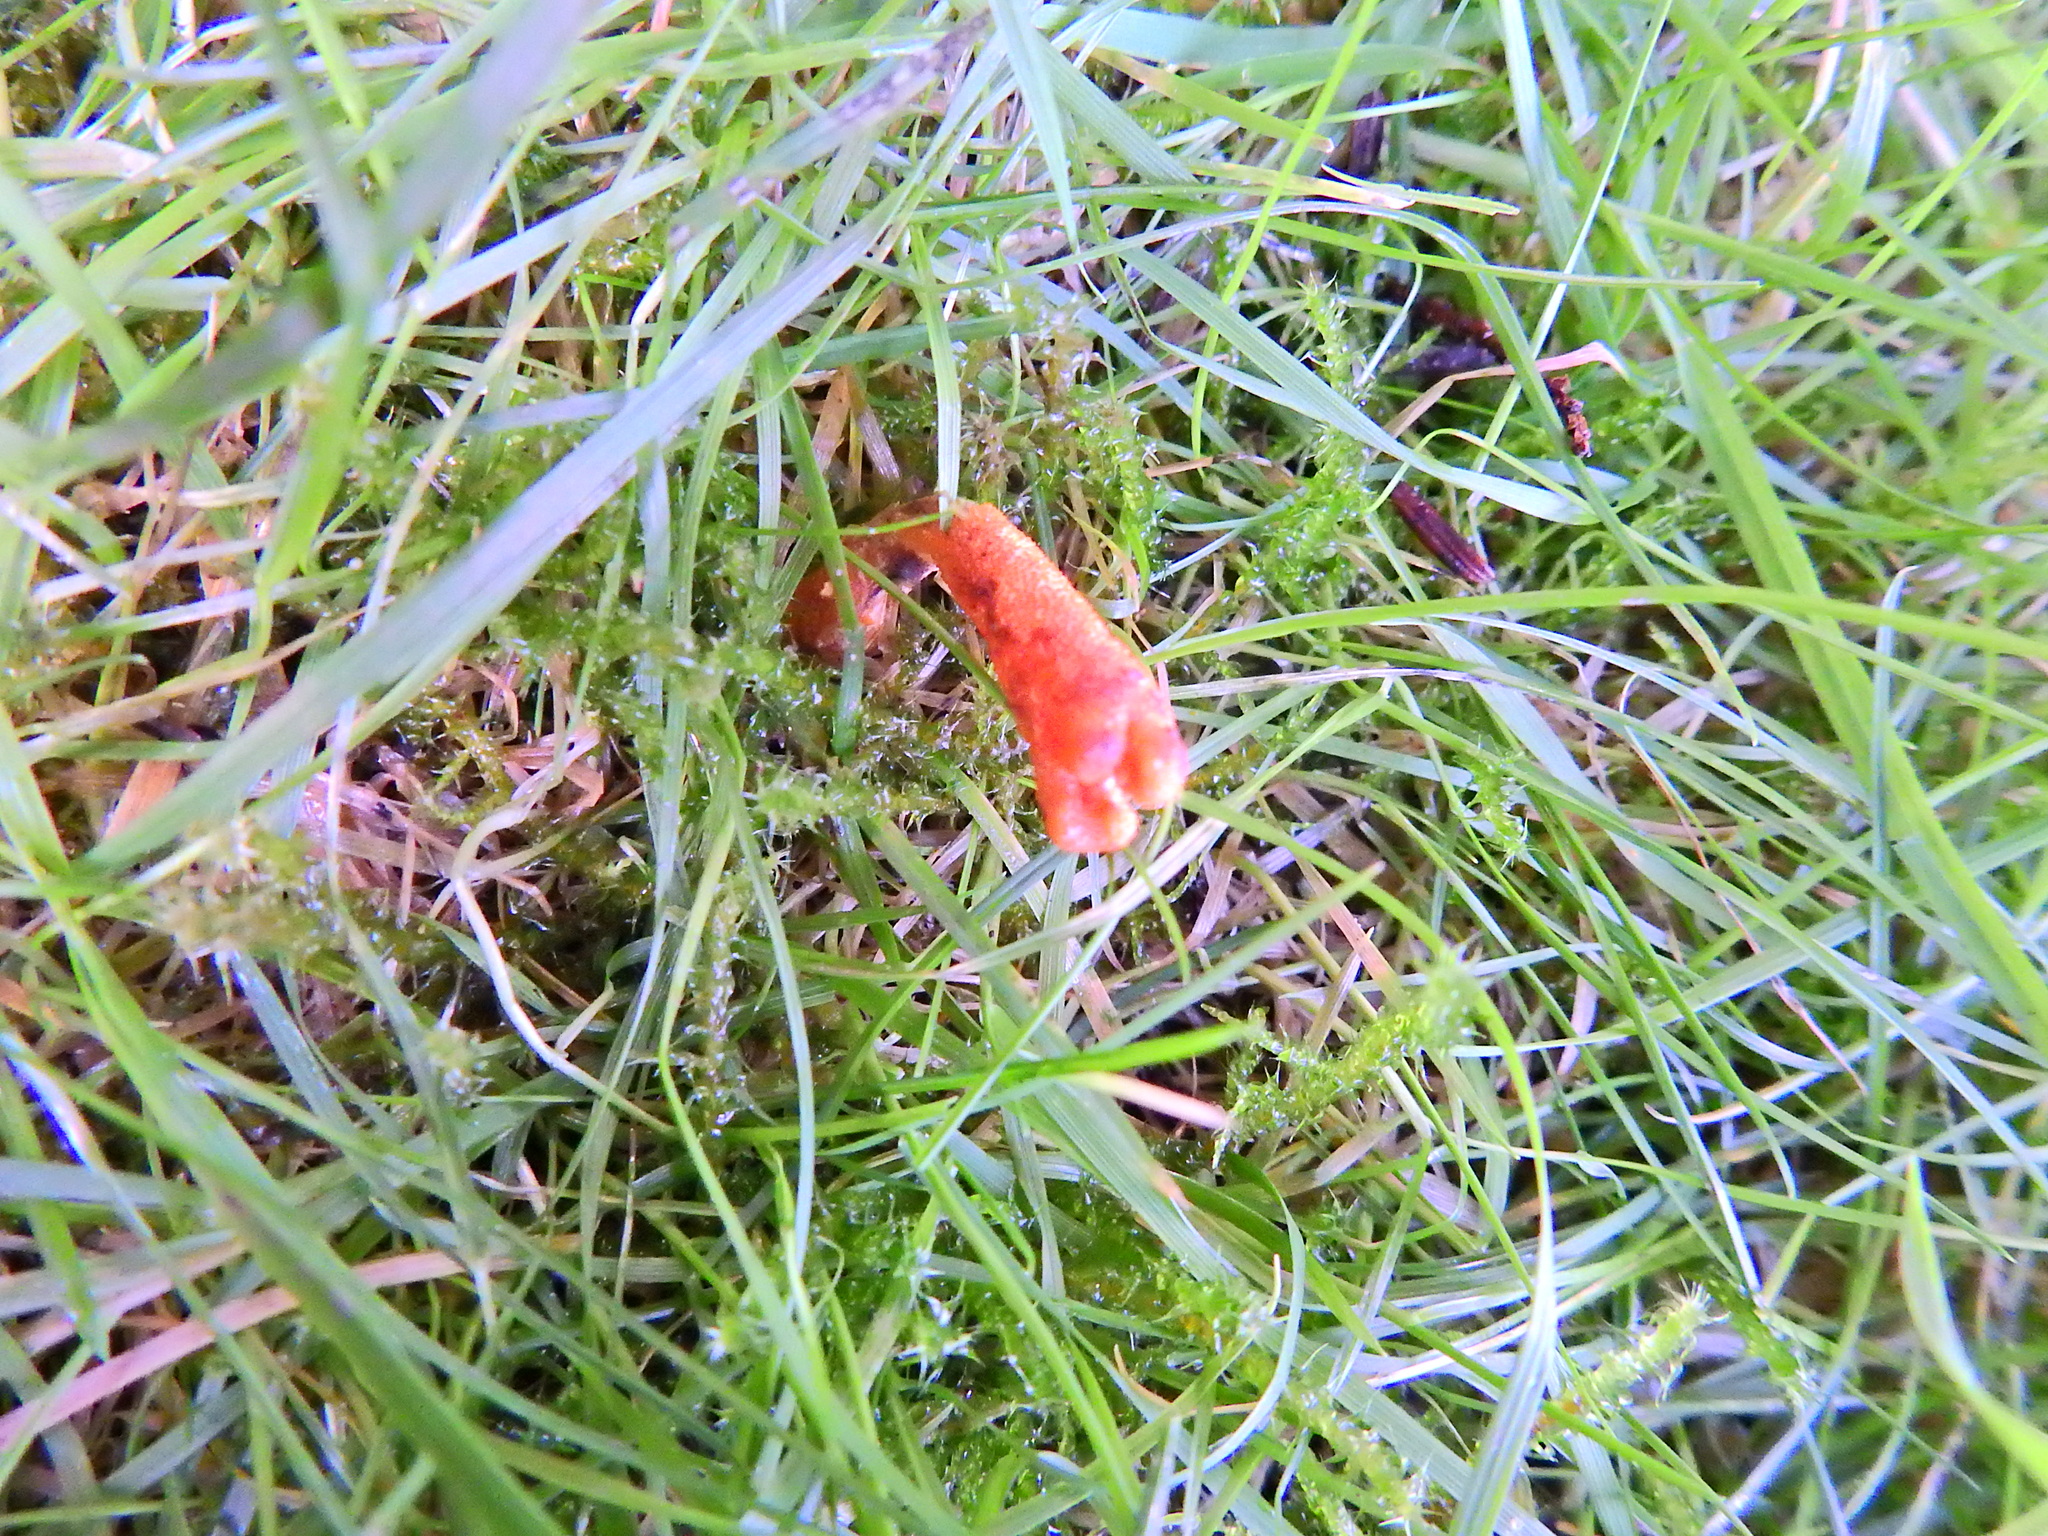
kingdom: Fungi
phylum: Ascomycota
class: Sordariomycetes
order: Hypocreales
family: Cordycipitaceae
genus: Cordyceps
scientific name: Cordyceps militaris
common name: Scarlet caterpillar fungus
